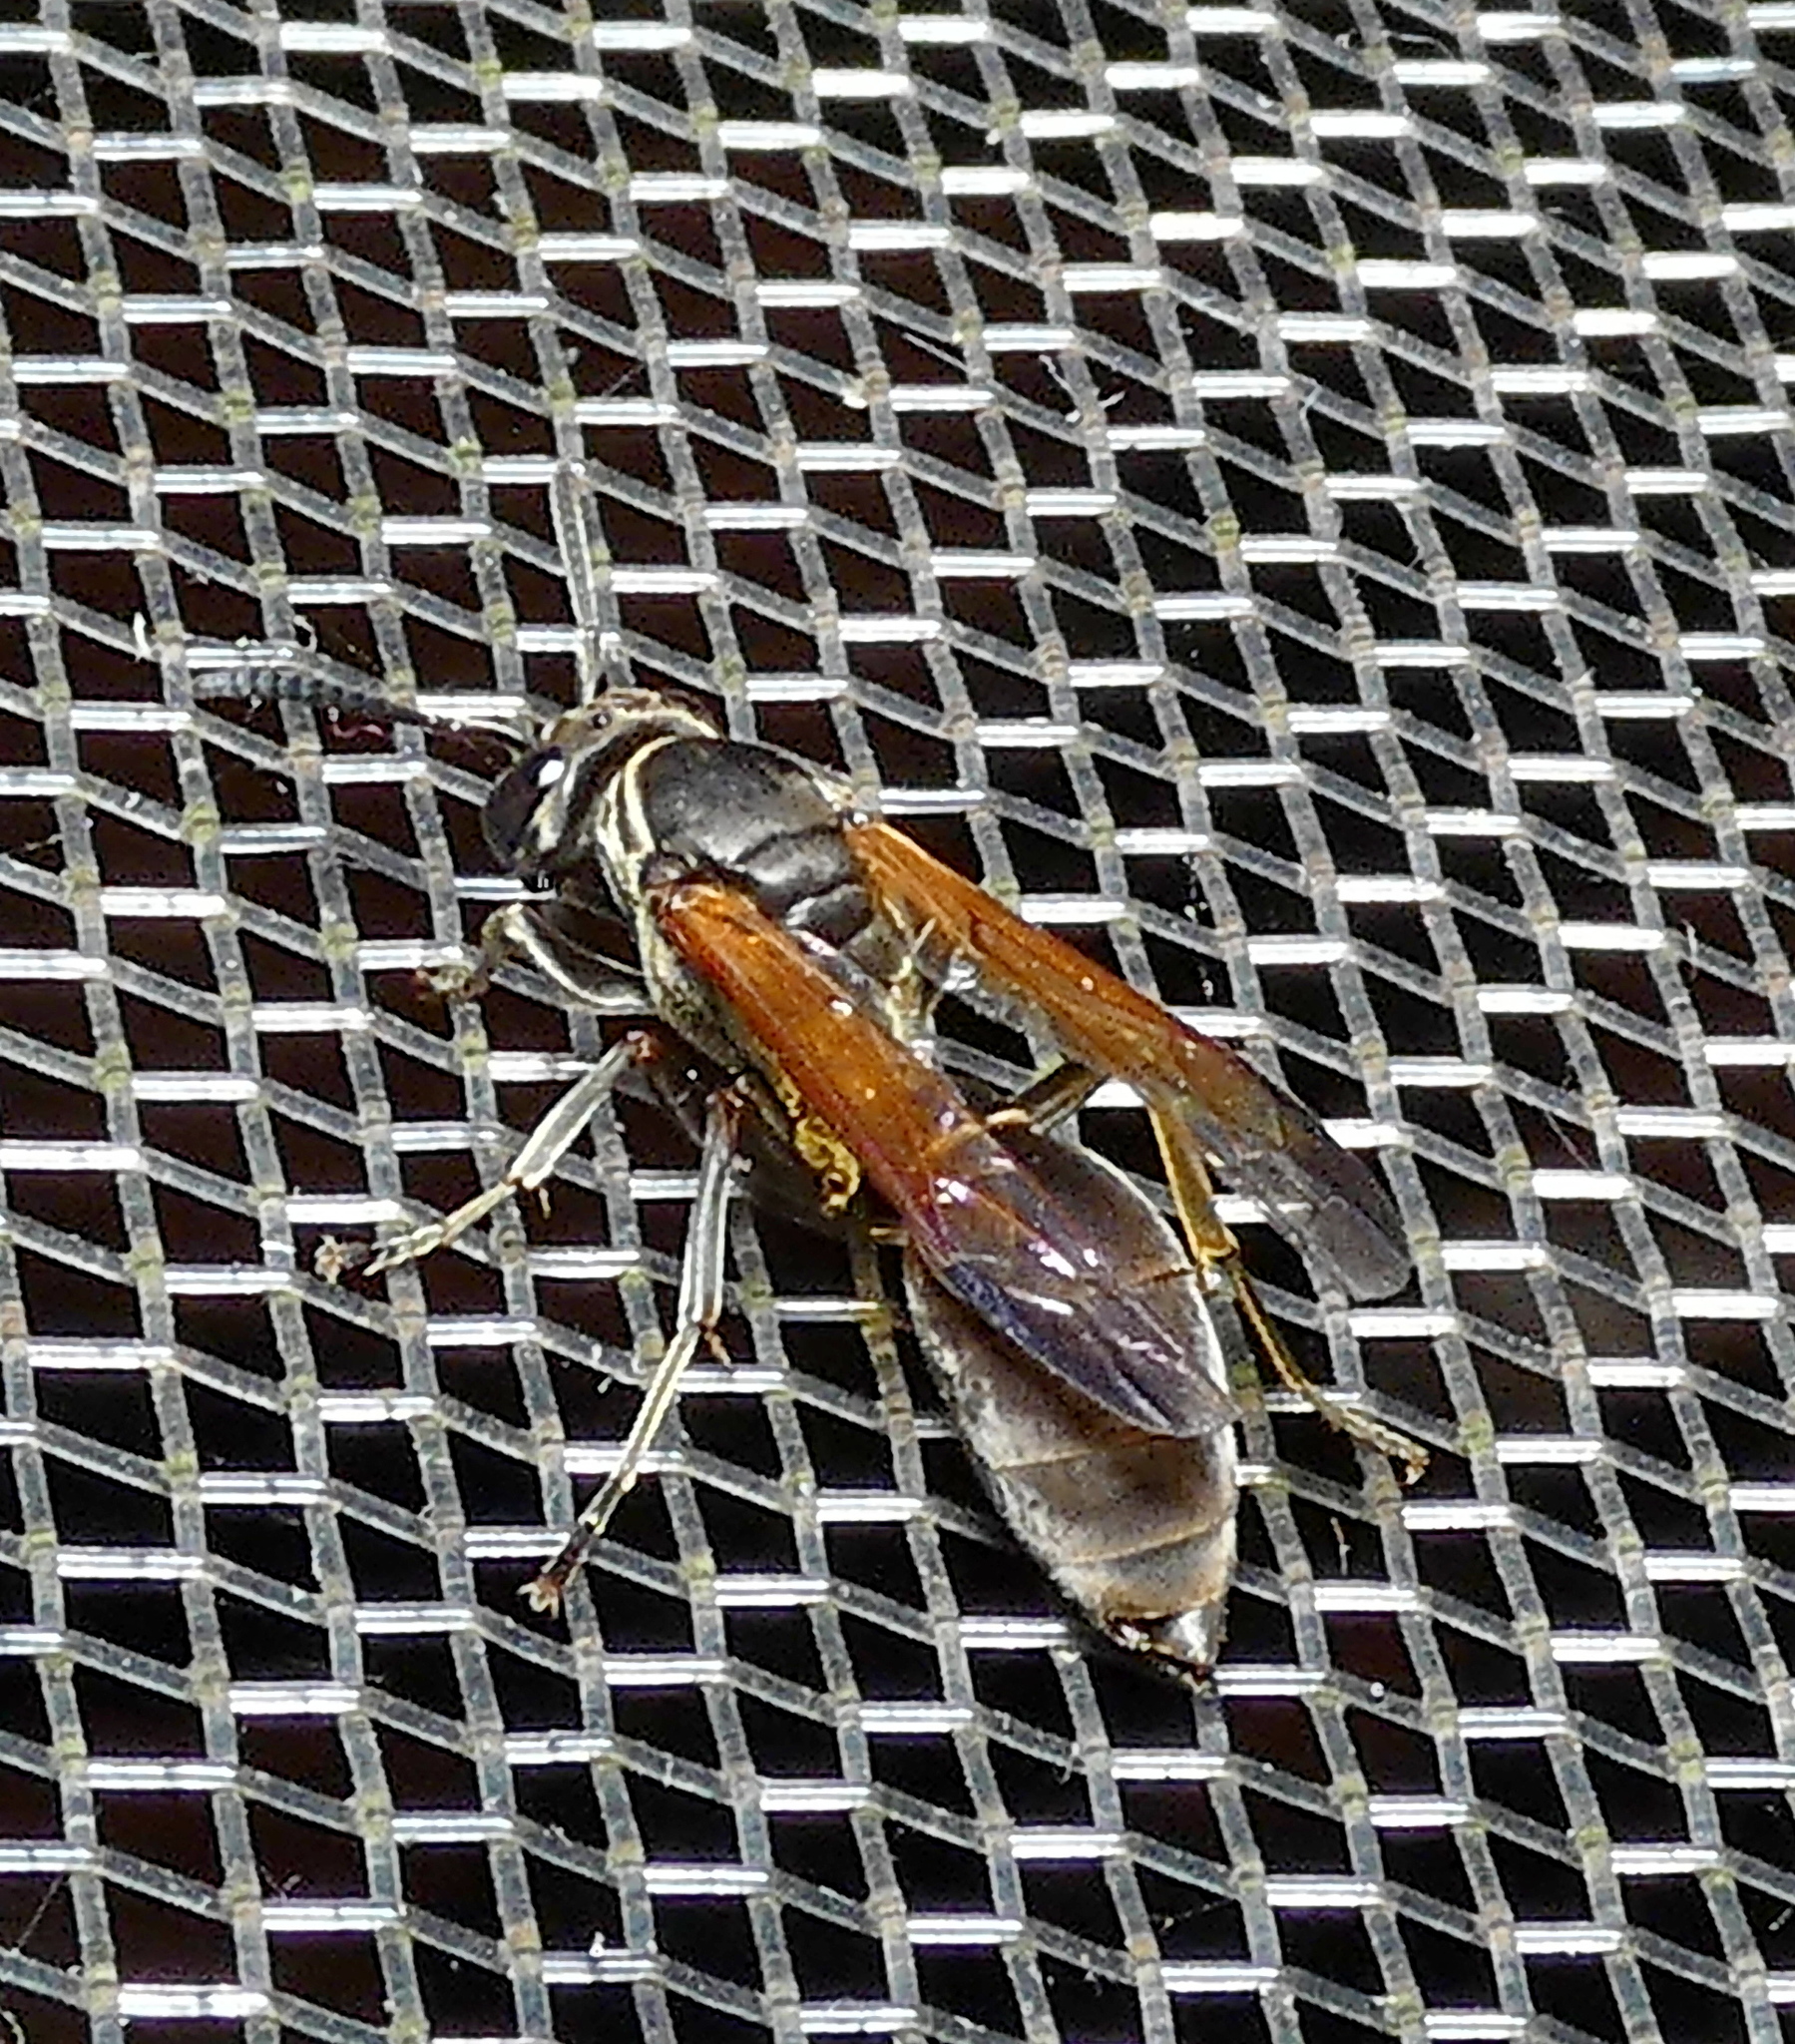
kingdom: Animalia
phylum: Arthropoda
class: Insecta
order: Hymenoptera
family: Eumenidae
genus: Polybia
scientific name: Polybia rejecta
